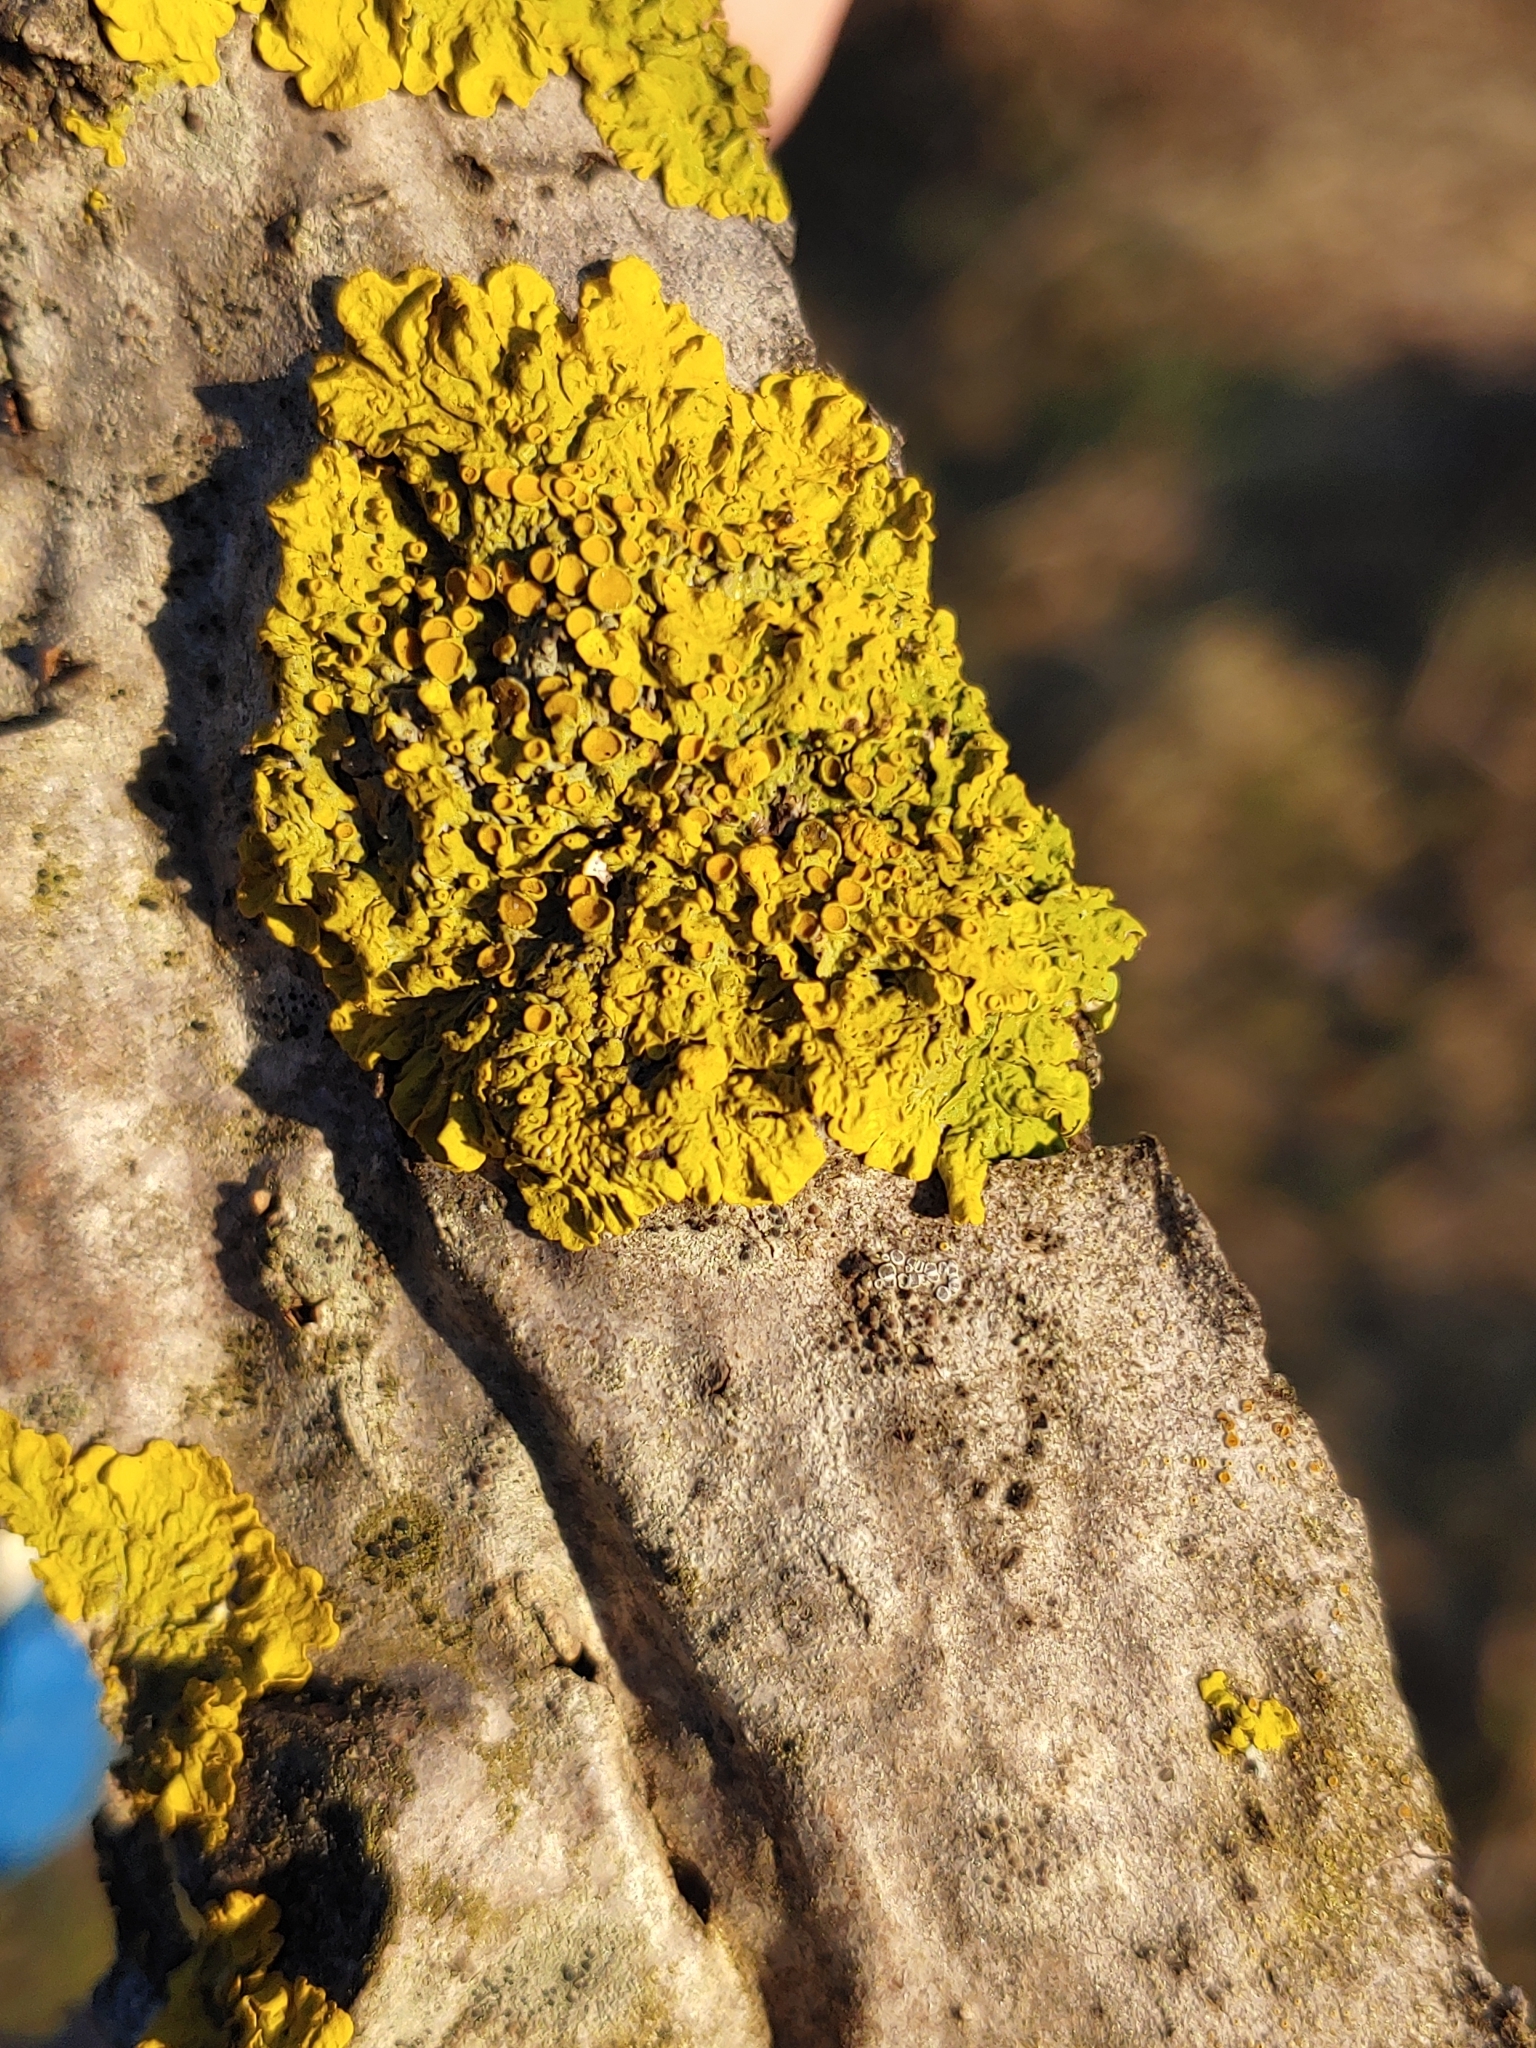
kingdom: Fungi
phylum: Ascomycota
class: Lecanoromycetes
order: Teloschistales
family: Teloschistaceae
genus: Xanthoria
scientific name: Xanthoria parietina
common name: Common orange lichen
